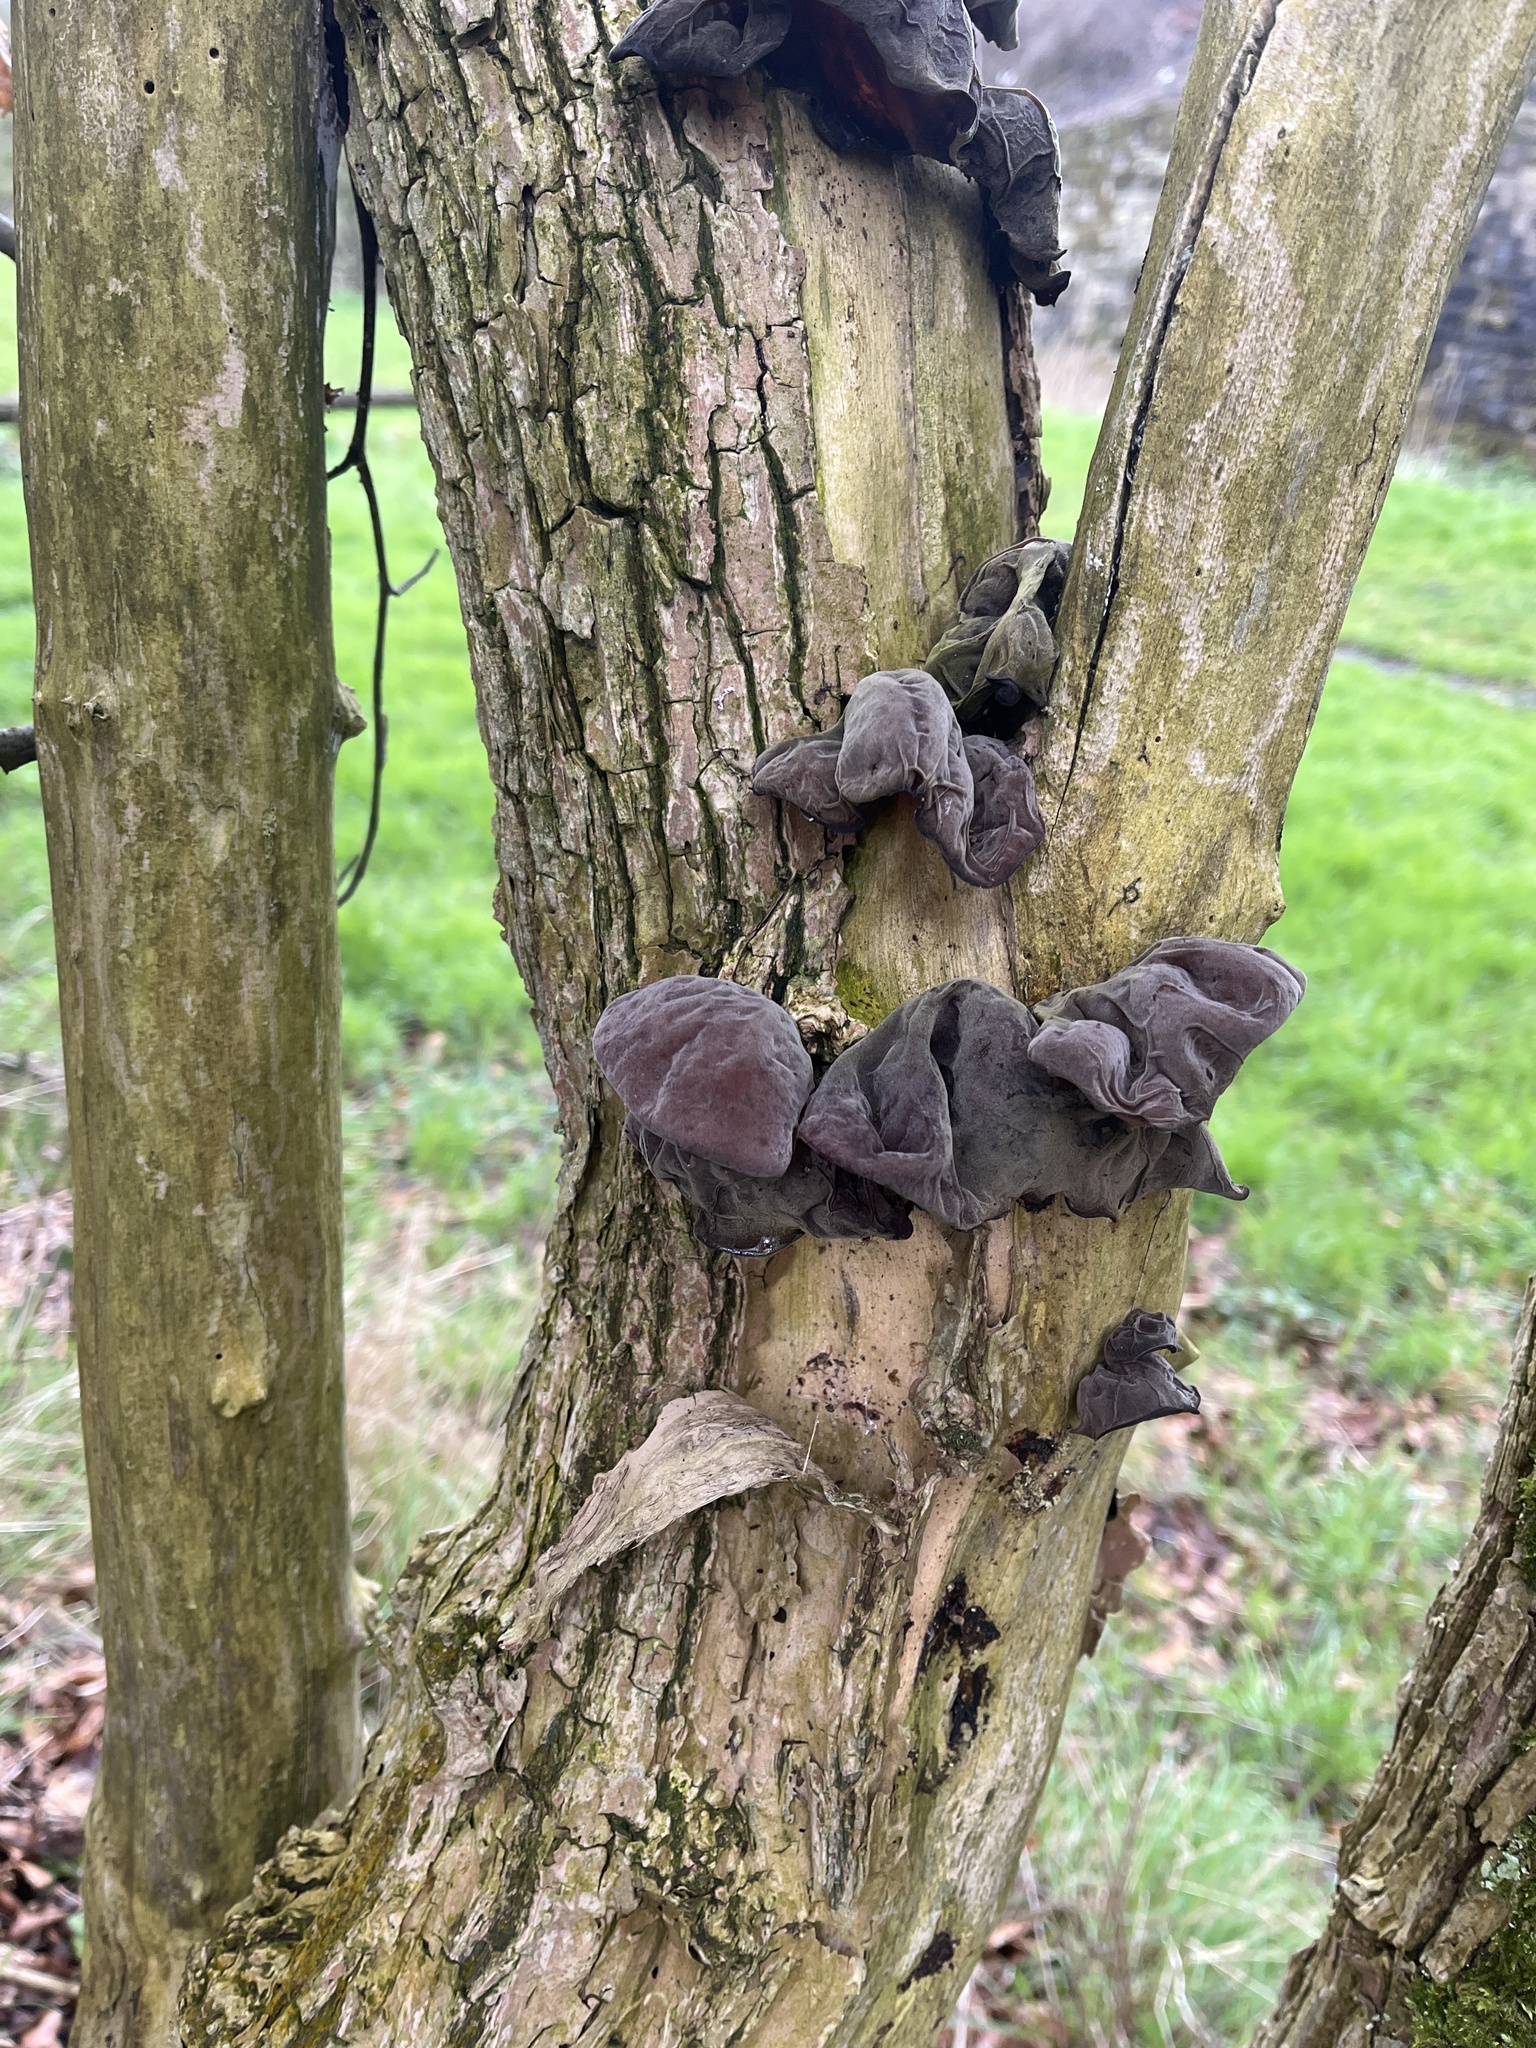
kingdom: Fungi
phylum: Basidiomycota
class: Agaricomycetes
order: Auriculariales
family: Auriculariaceae
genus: Auricularia
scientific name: Auricularia auricula-judae
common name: Jelly ear
